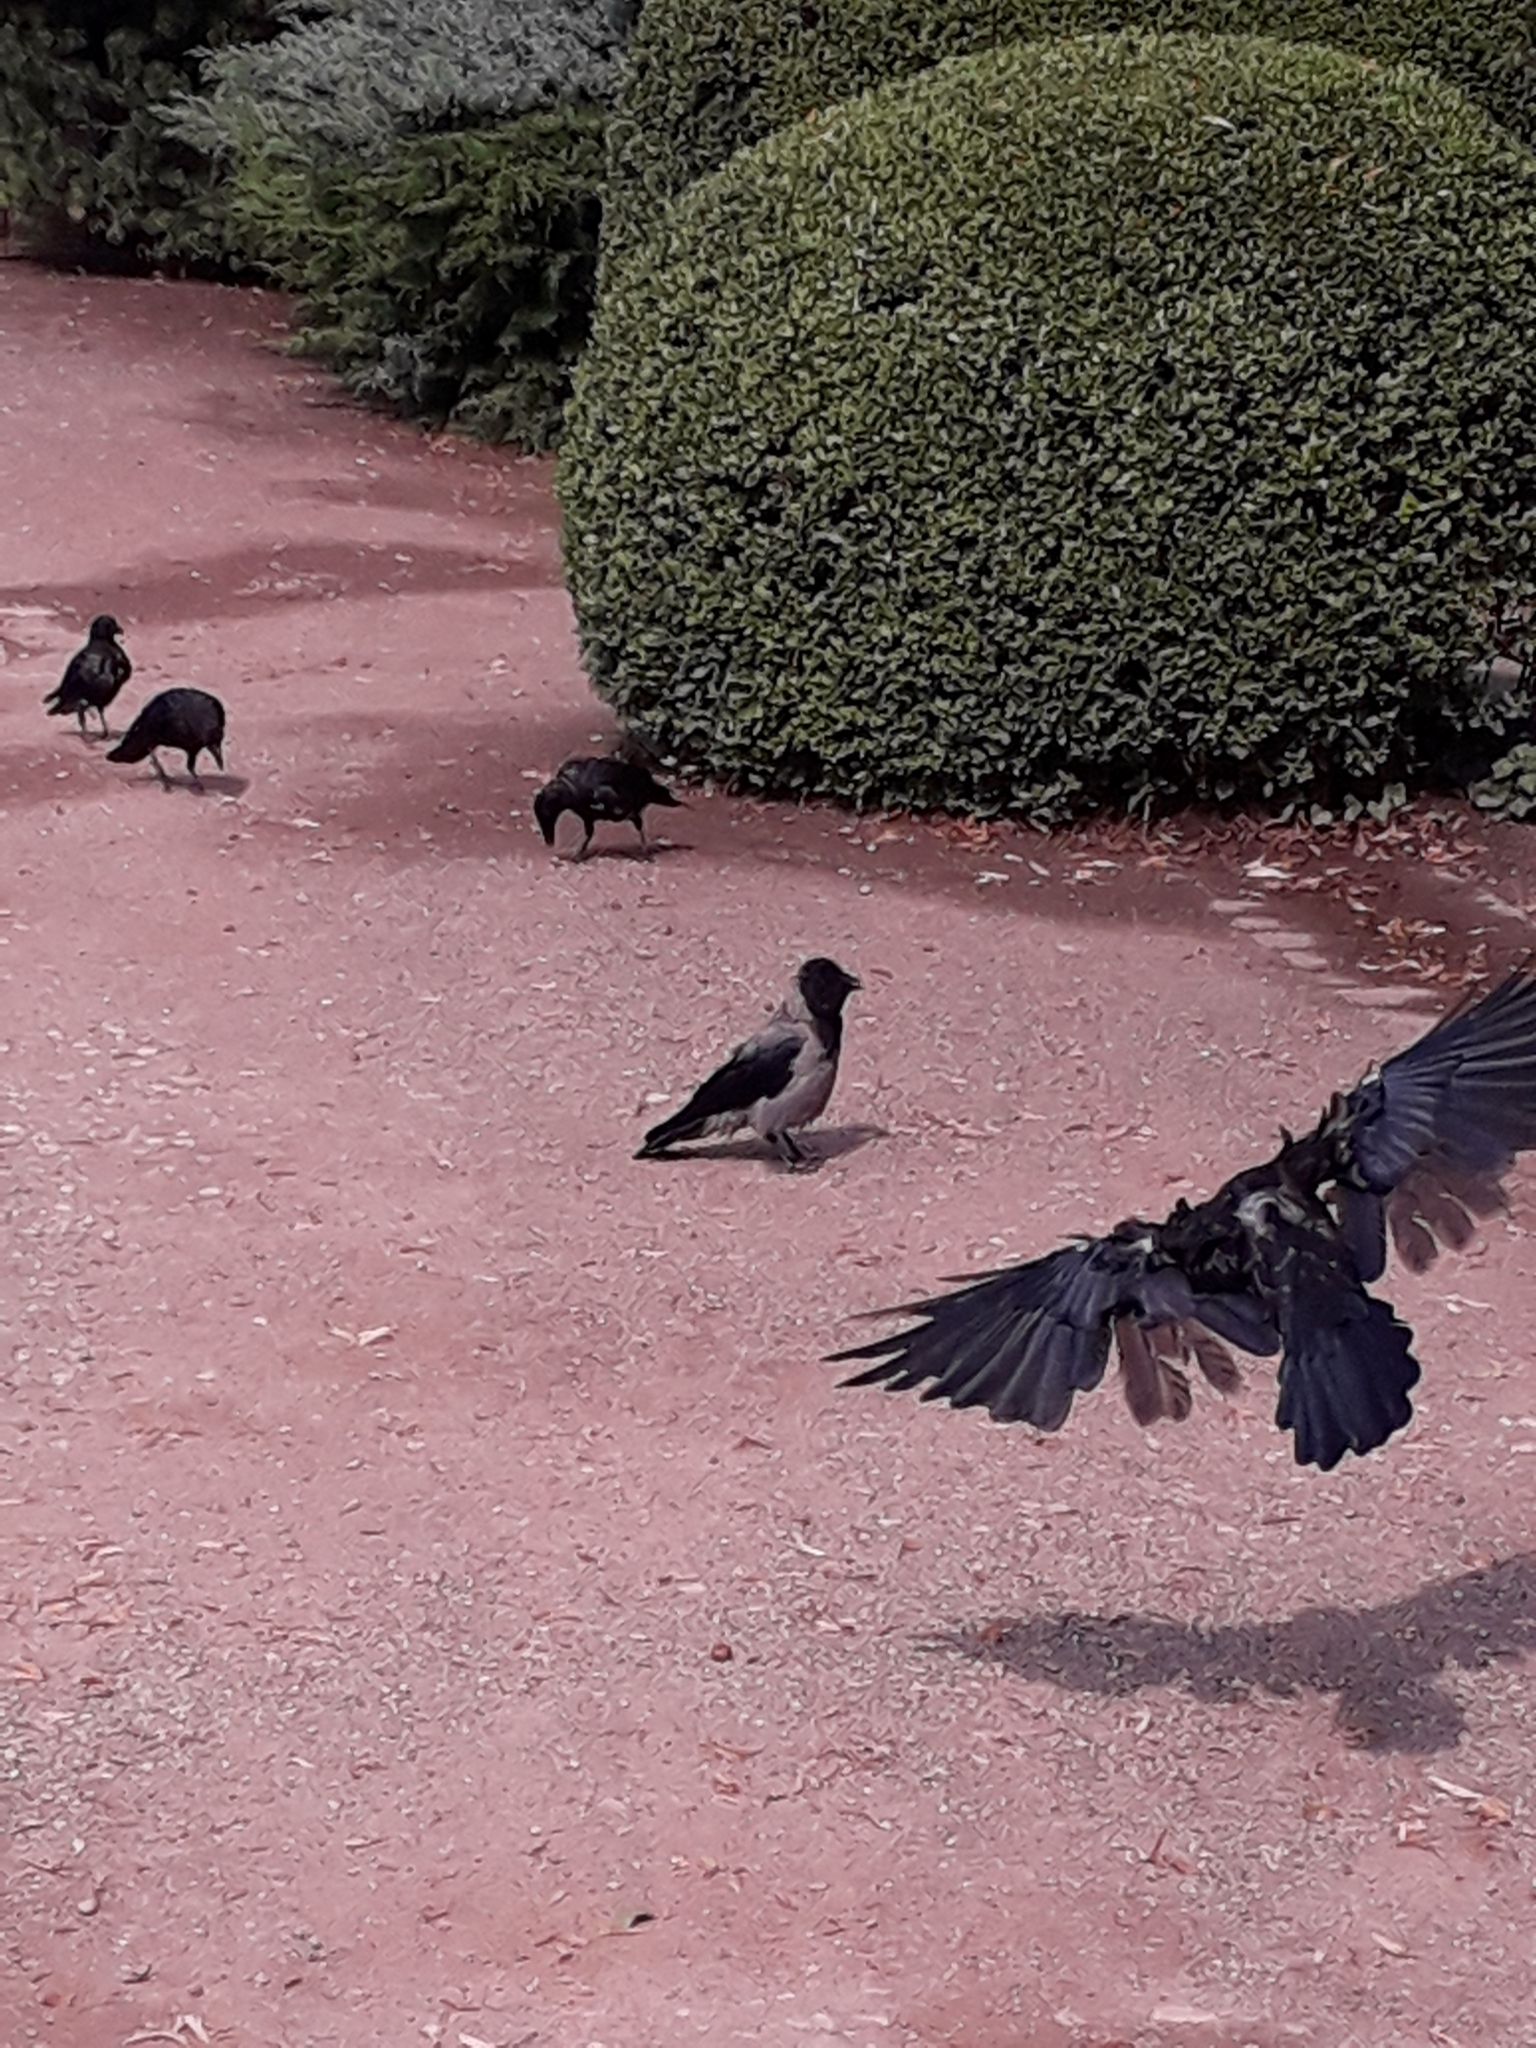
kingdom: Animalia
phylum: Chordata
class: Aves
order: Passeriformes
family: Corvidae
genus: Corvus
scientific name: Corvus cornix
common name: Hooded crow
